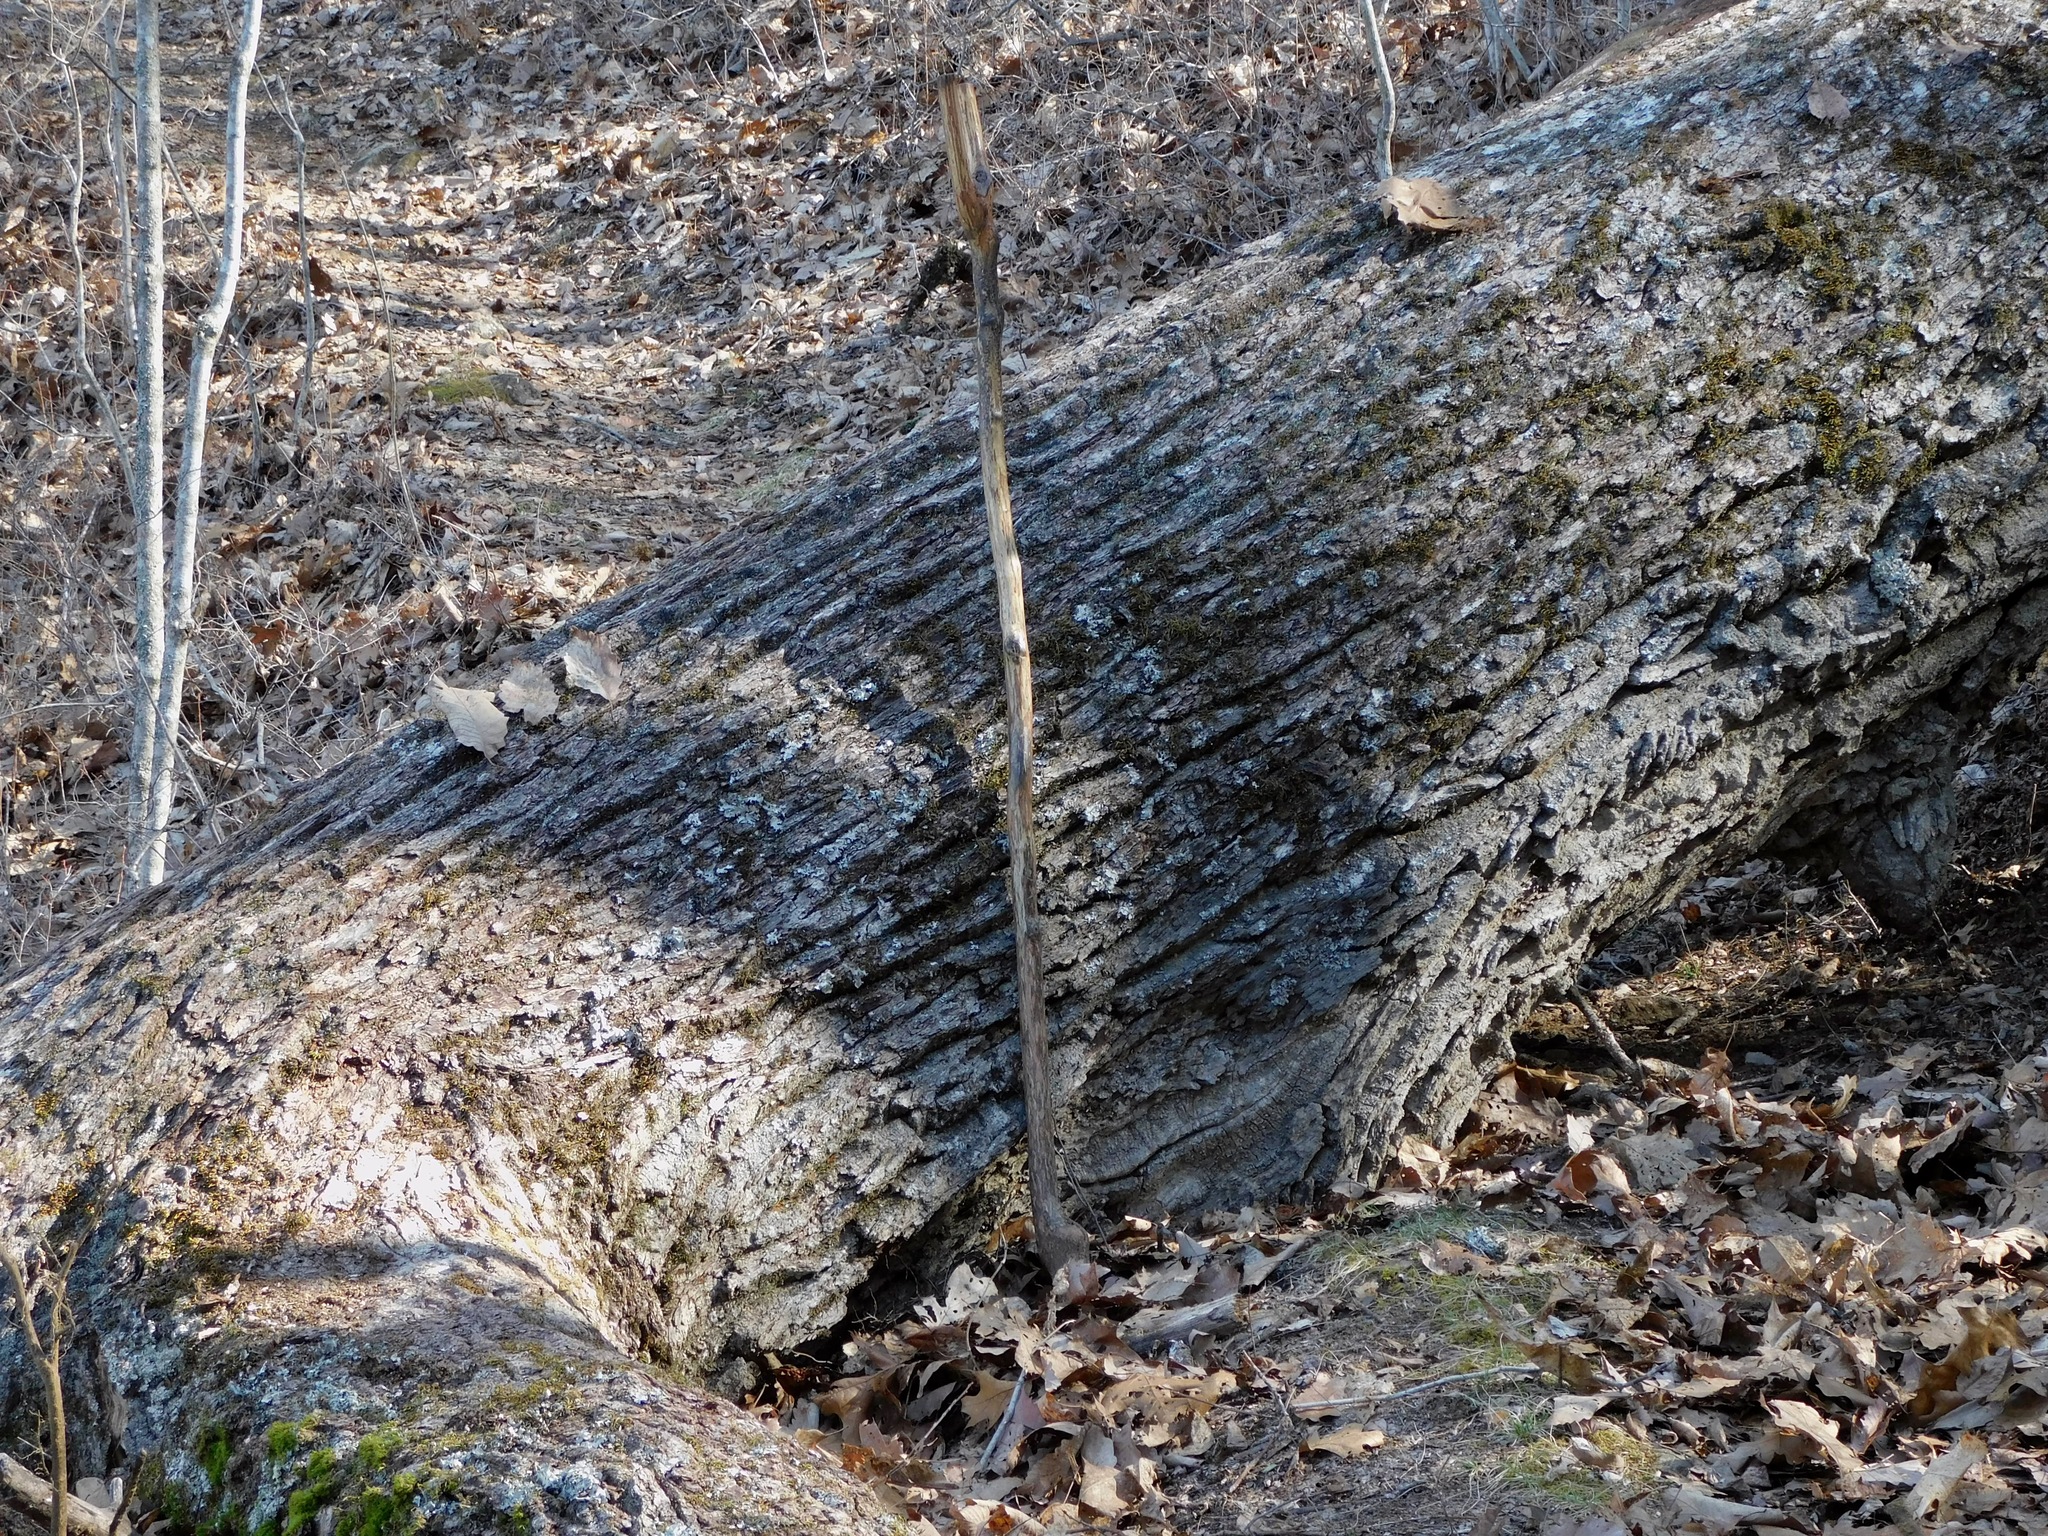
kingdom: Plantae
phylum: Tracheophyta
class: Magnoliopsida
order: Fagales
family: Fagaceae
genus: Quercus
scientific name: Quercus montana
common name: Chestnut oak
